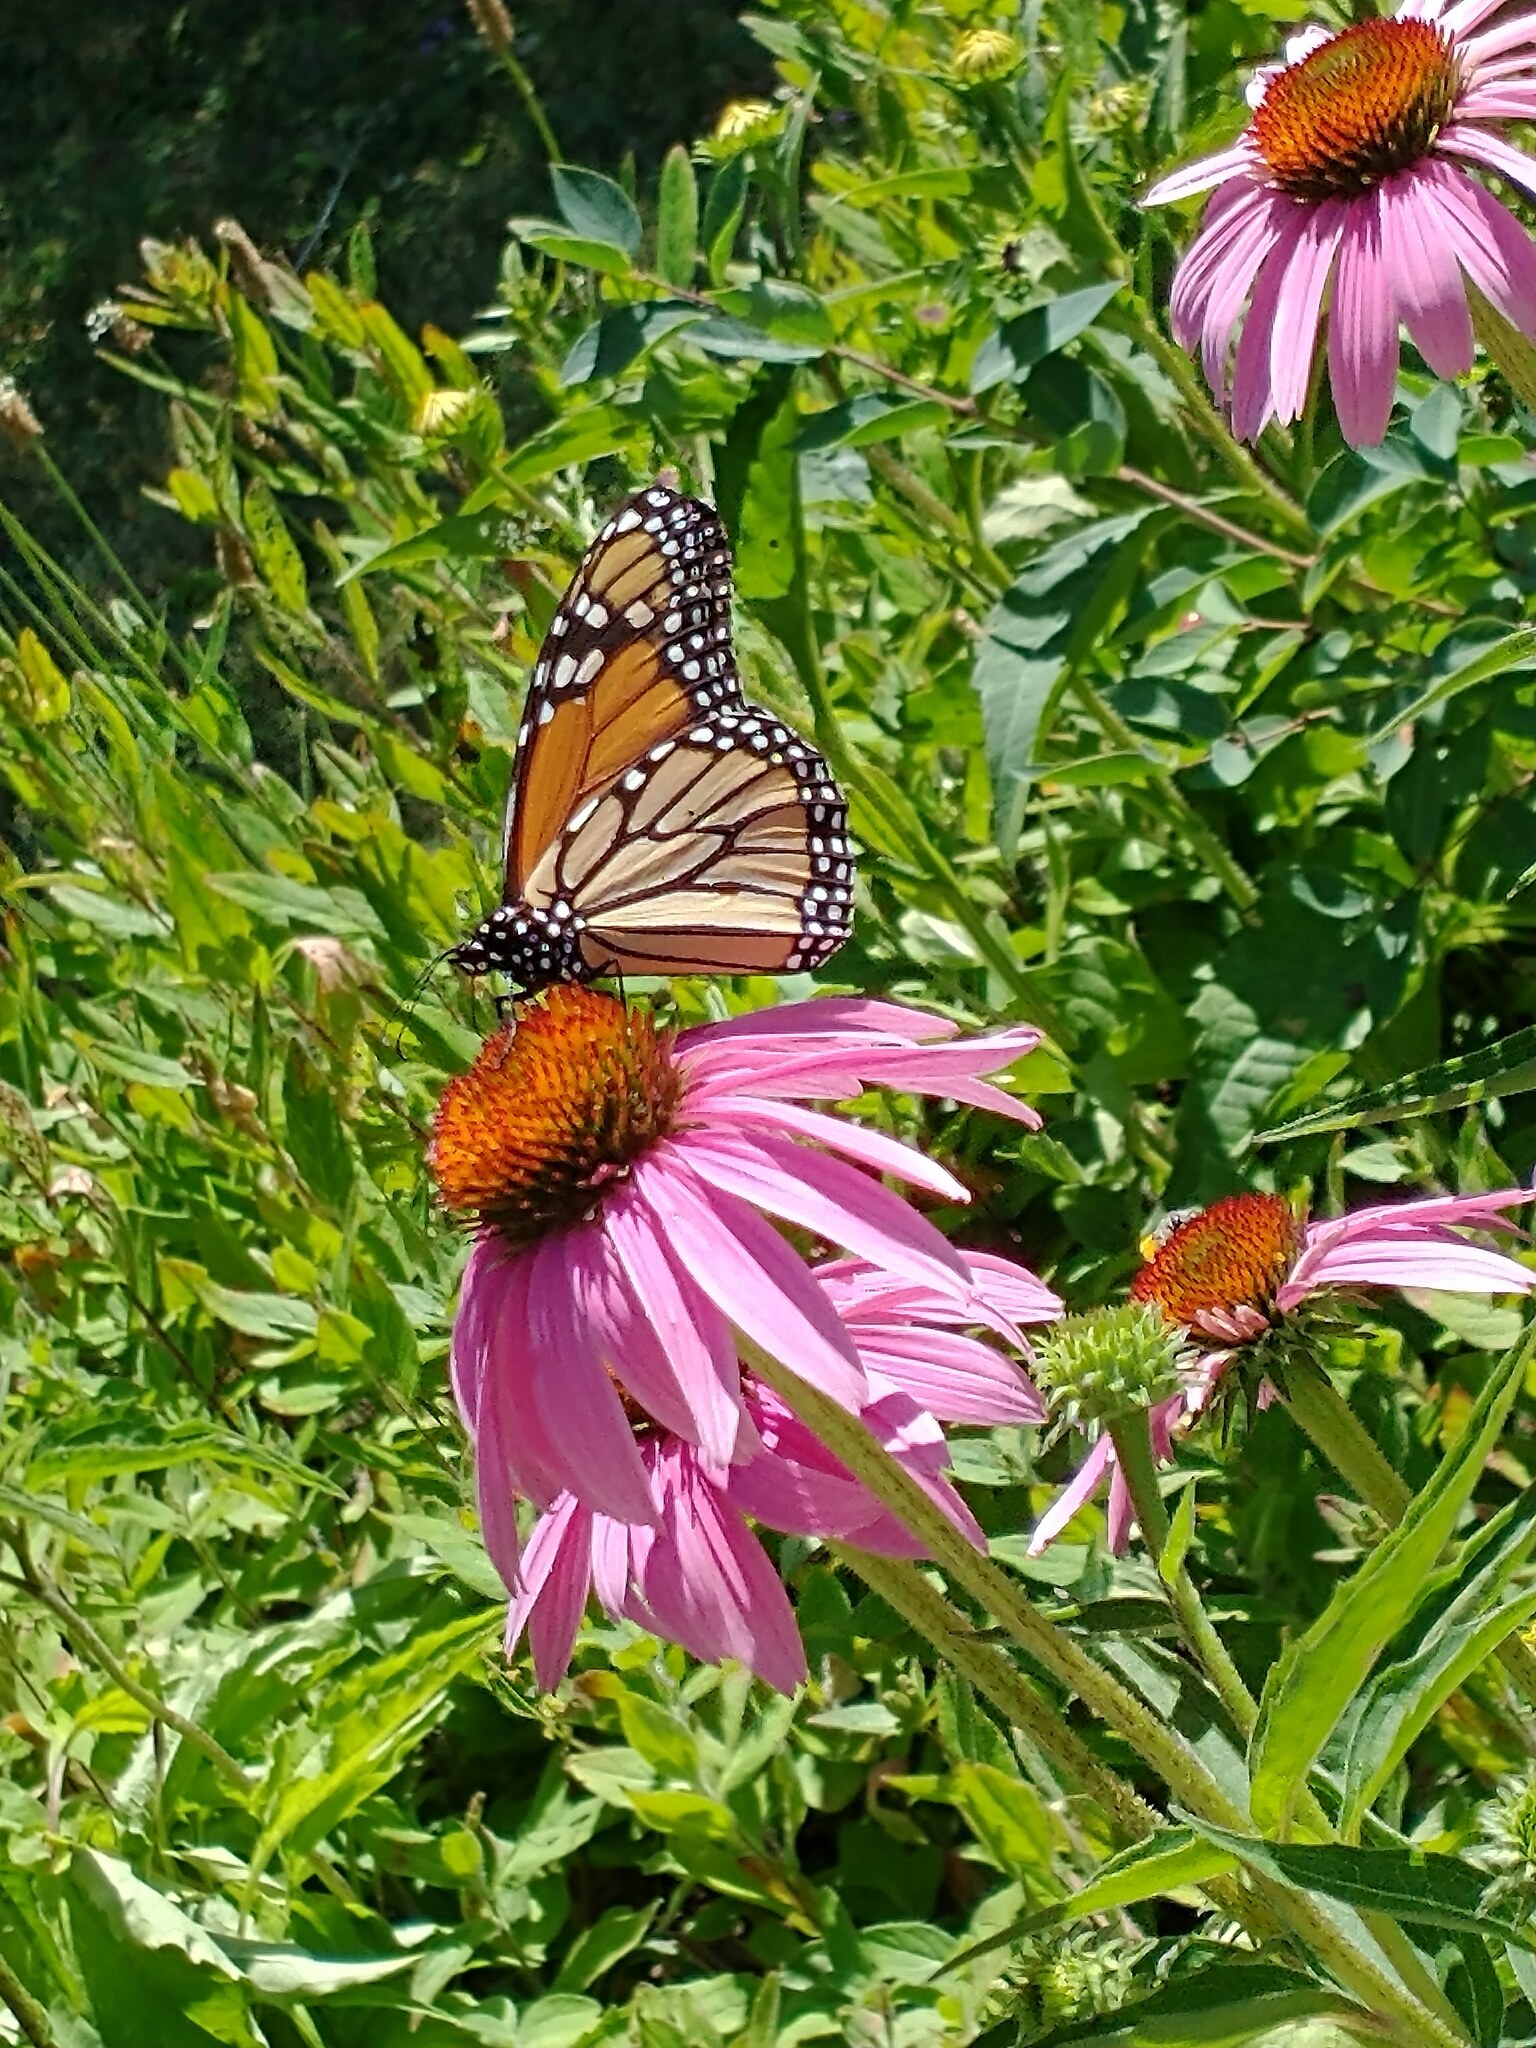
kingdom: Animalia
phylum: Arthropoda
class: Insecta
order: Lepidoptera
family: Nymphalidae
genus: Danaus
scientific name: Danaus plexippus
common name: Monarch
